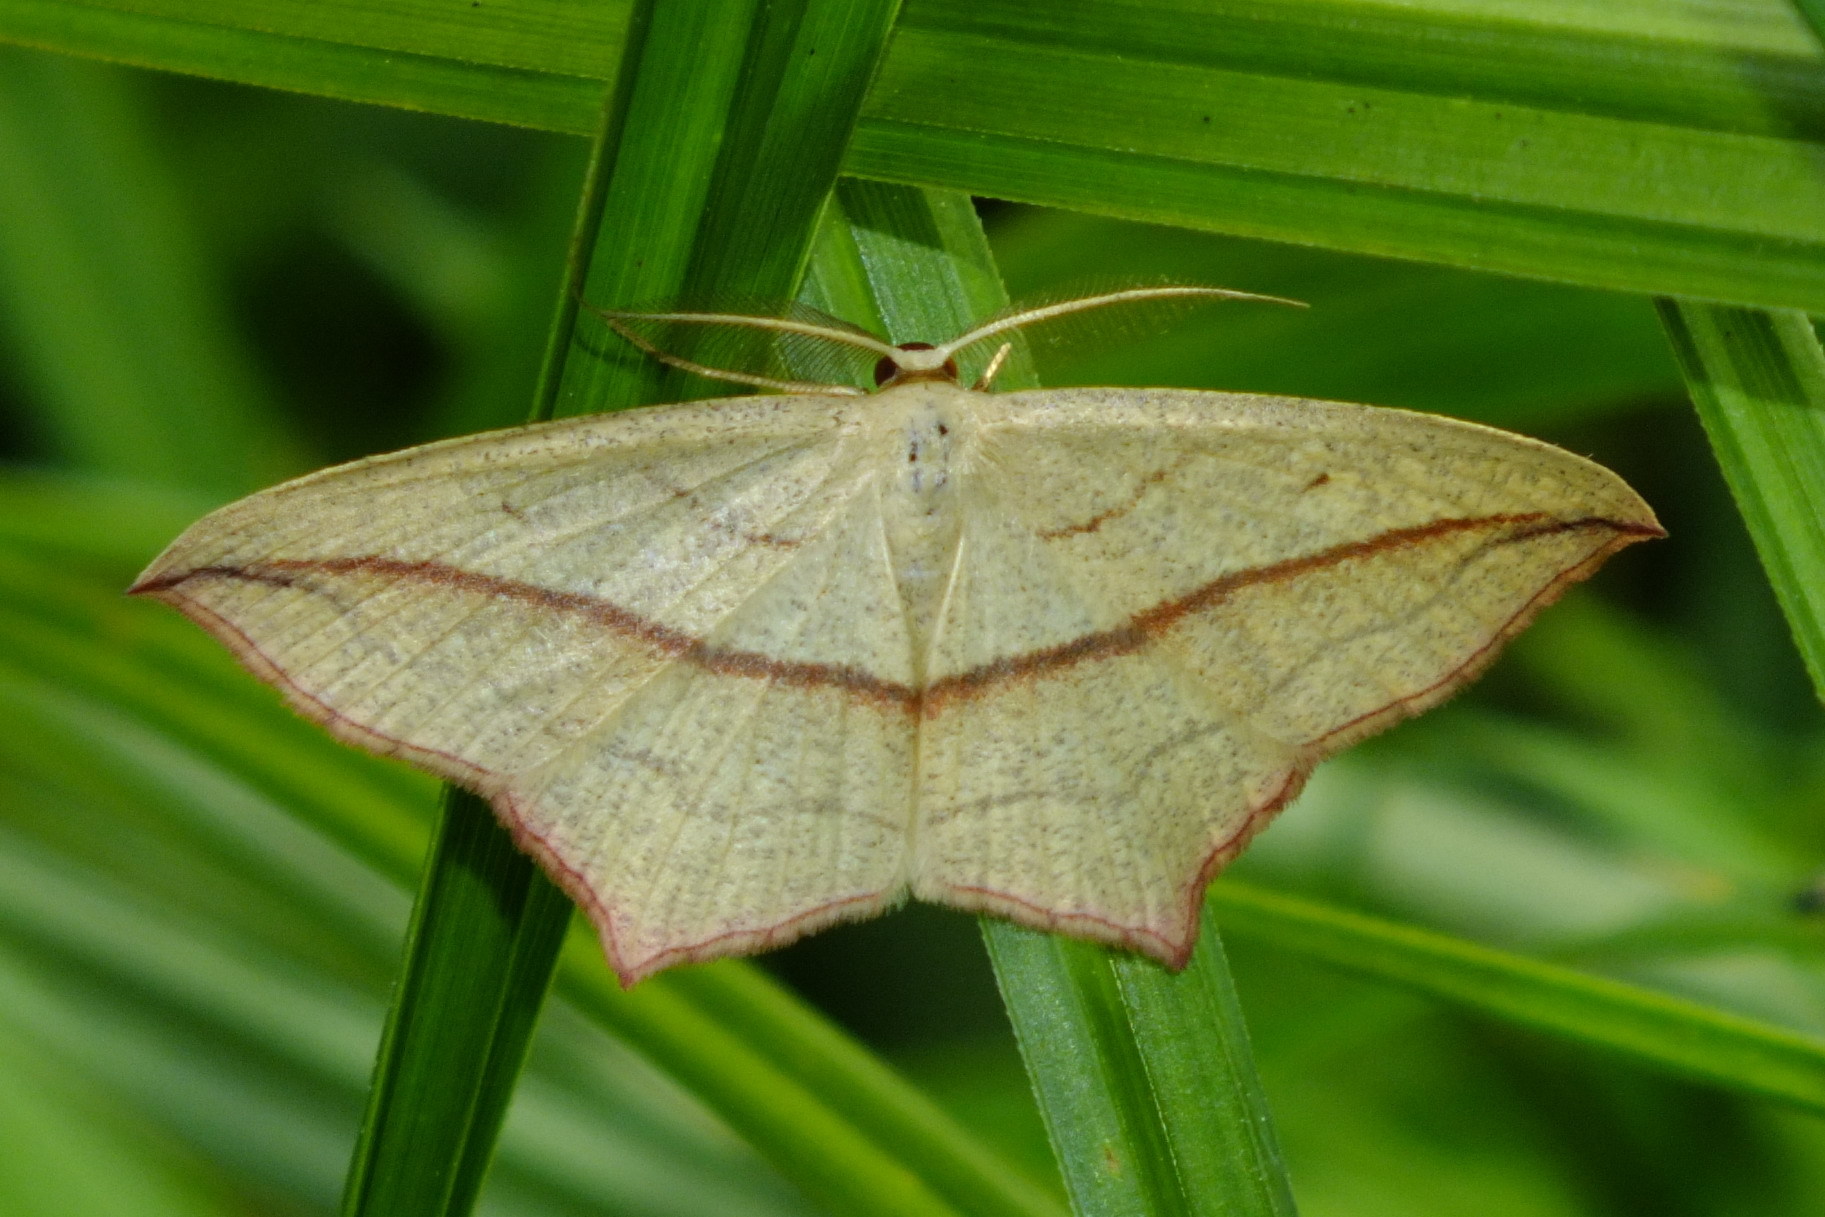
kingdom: Animalia
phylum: Arthropoda
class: Insecta
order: Lepidoptera
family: Geometridae
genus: Timandra
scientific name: Timandra comae
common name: Blood-vein
